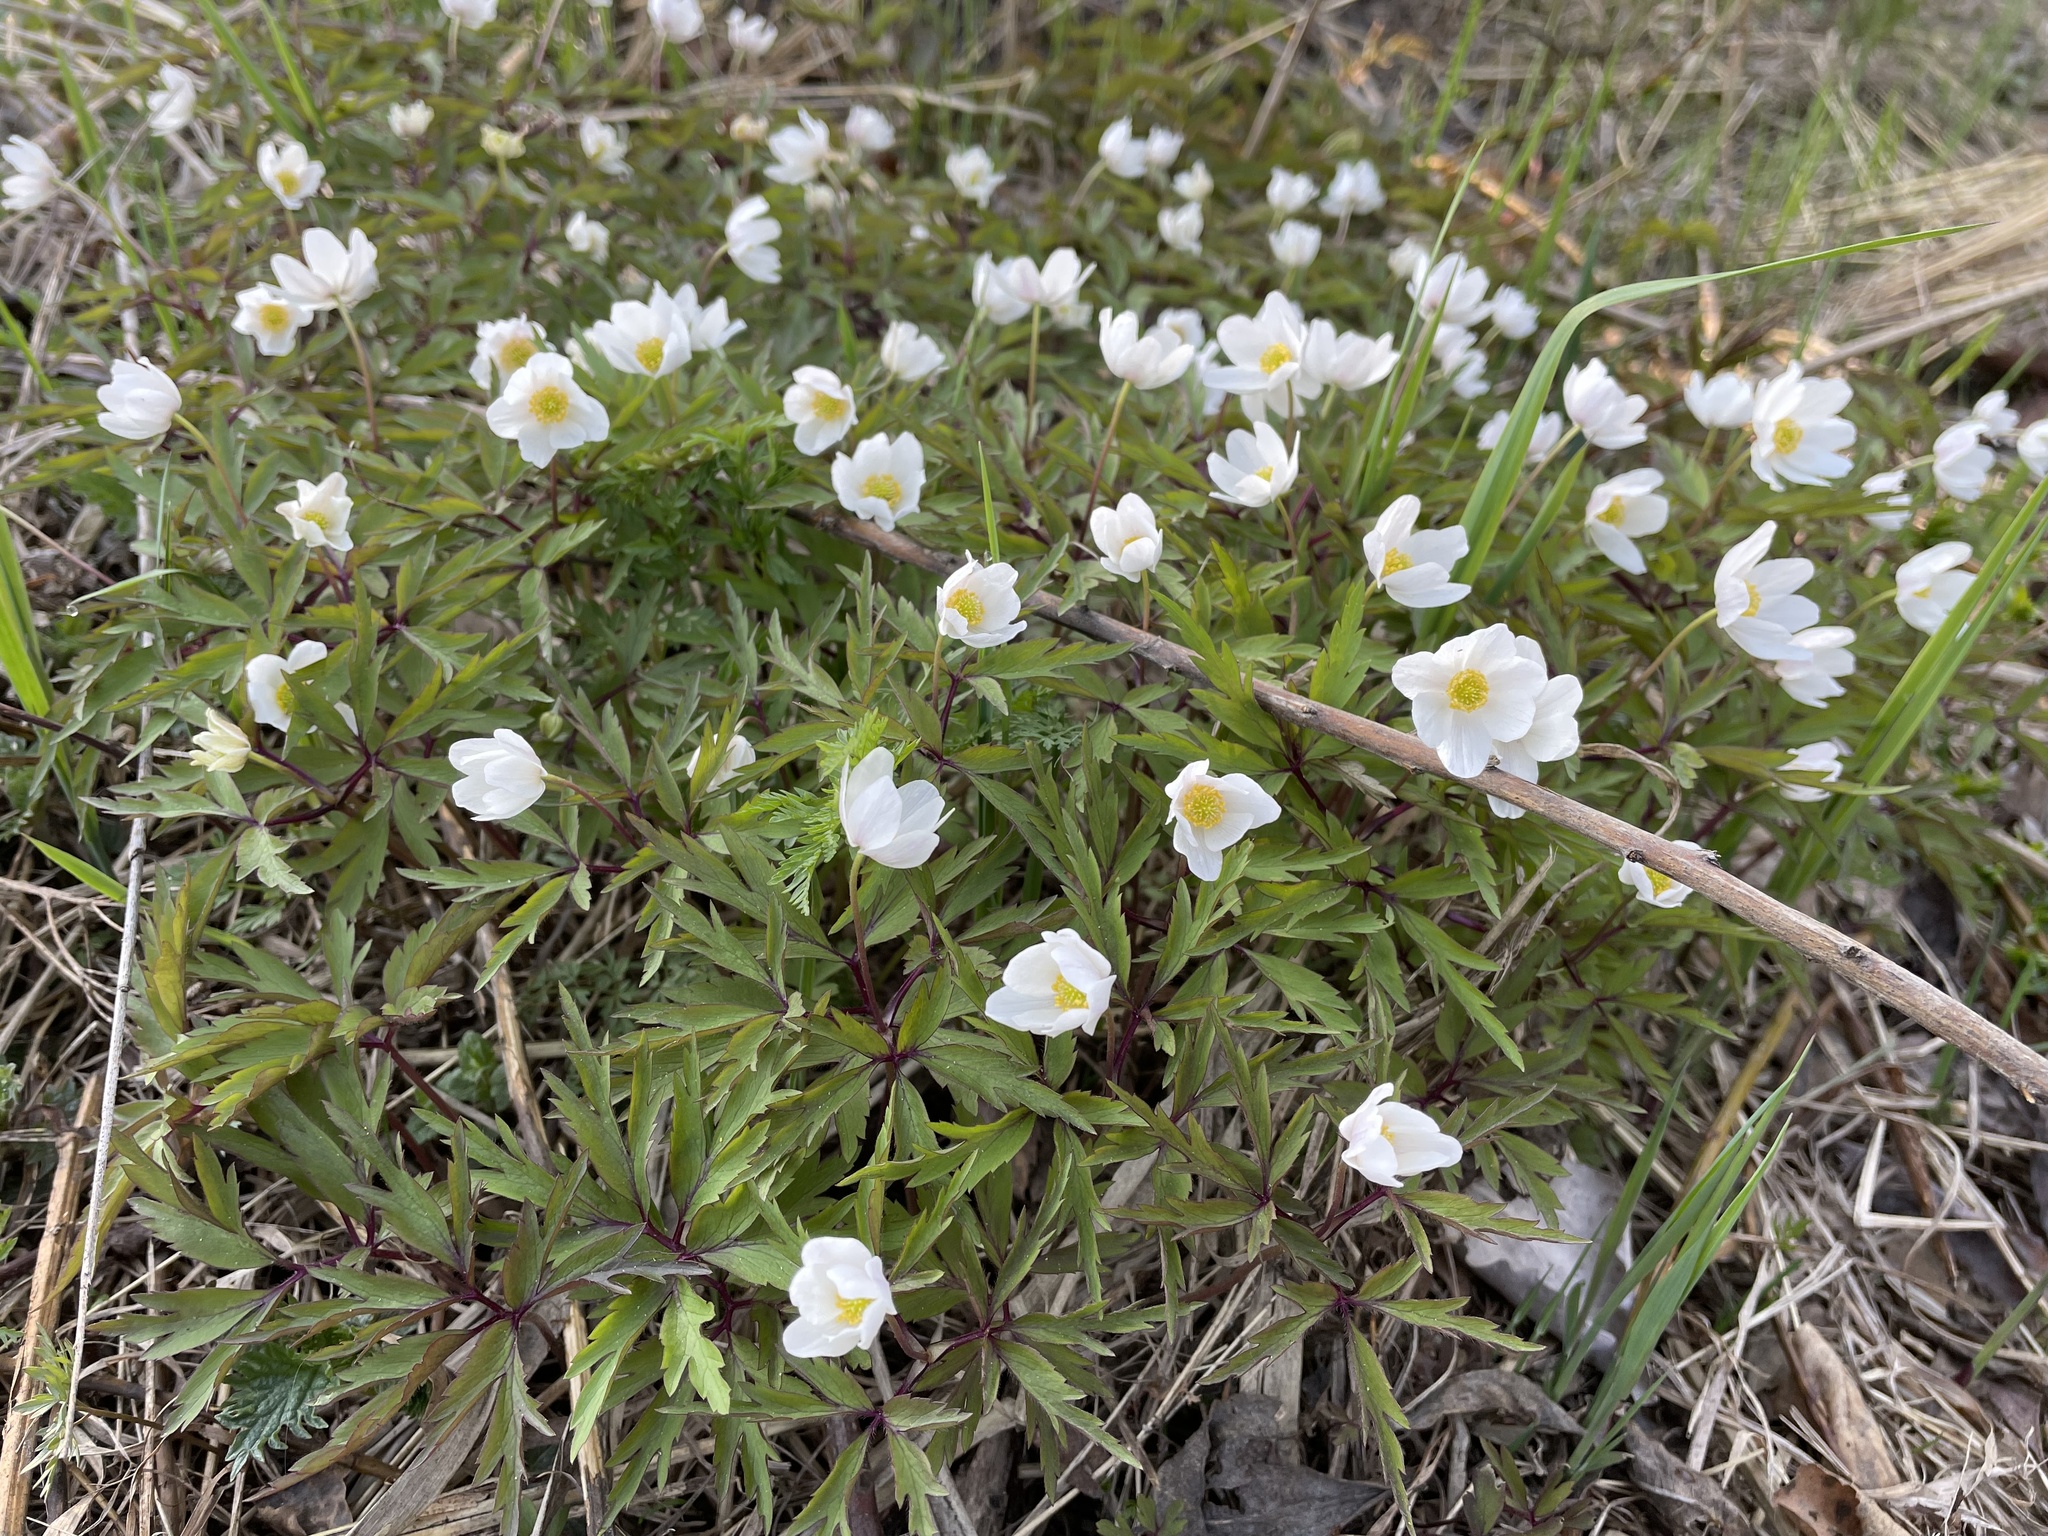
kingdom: Plantae
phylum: Tracheophyta
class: Magnoliopsida
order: Ranunculales
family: Ranunculaceae
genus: Anemone
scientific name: Anemone nemorosa
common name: Wood anemone
